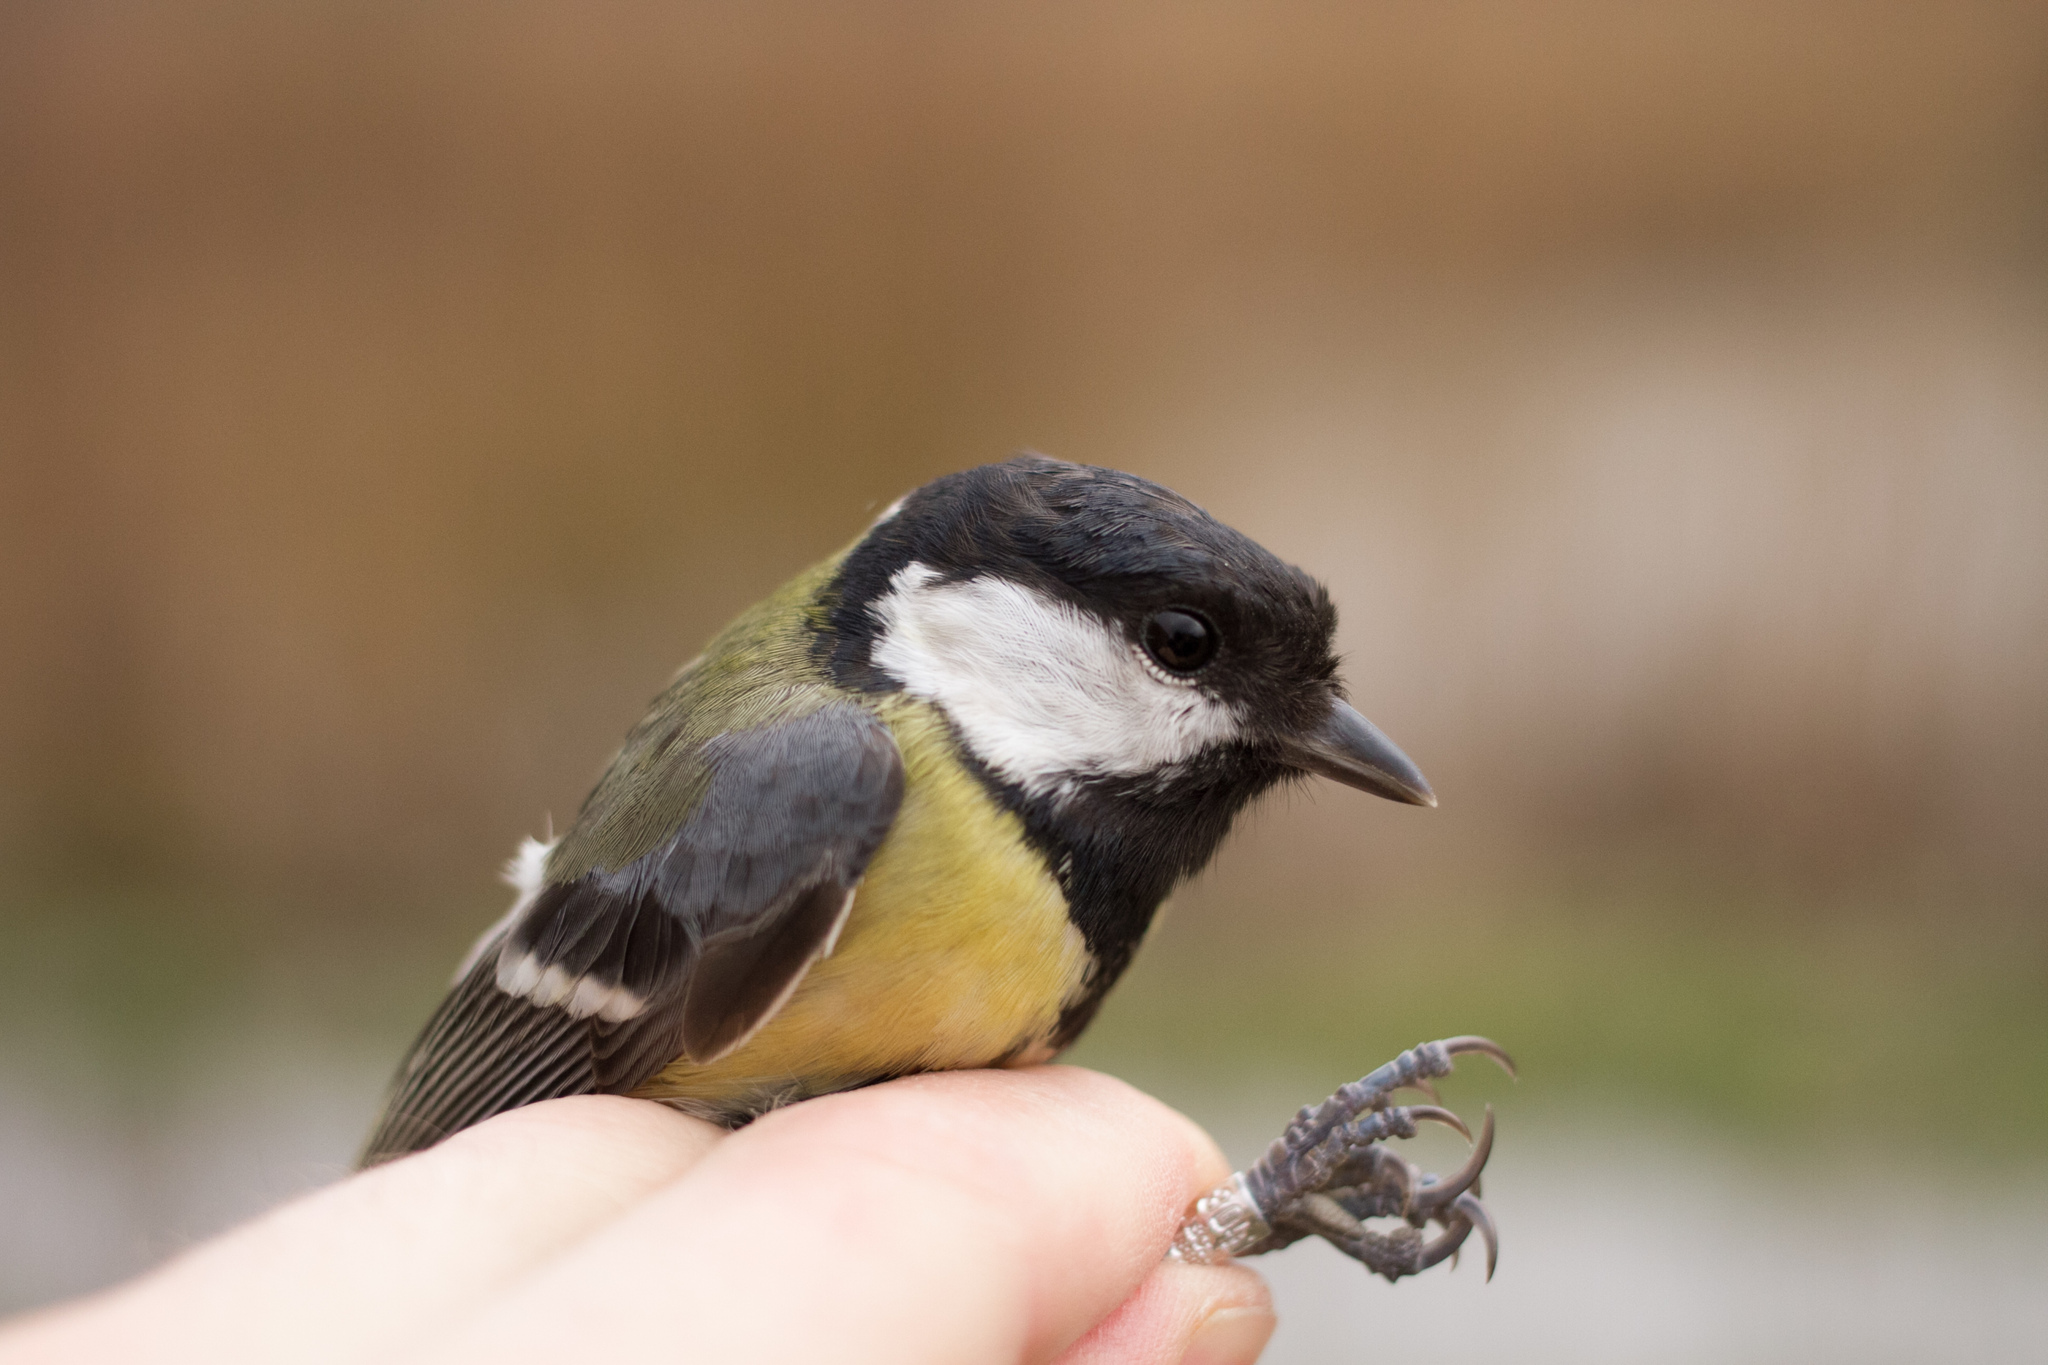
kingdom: Animalia
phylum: Chordata
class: Aves
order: Passeriformes
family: Paridae
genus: Parus
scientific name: Parus major
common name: Great tit
